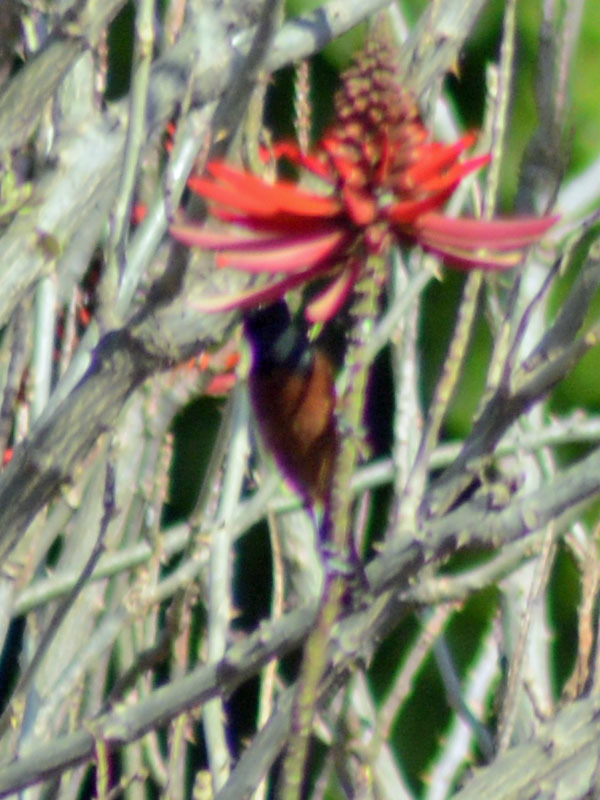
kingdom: Animalia
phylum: Chordata
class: Aves
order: Passeriformes
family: Icteridae
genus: Icterus
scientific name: Icterus spurius
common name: Orchard oriole
